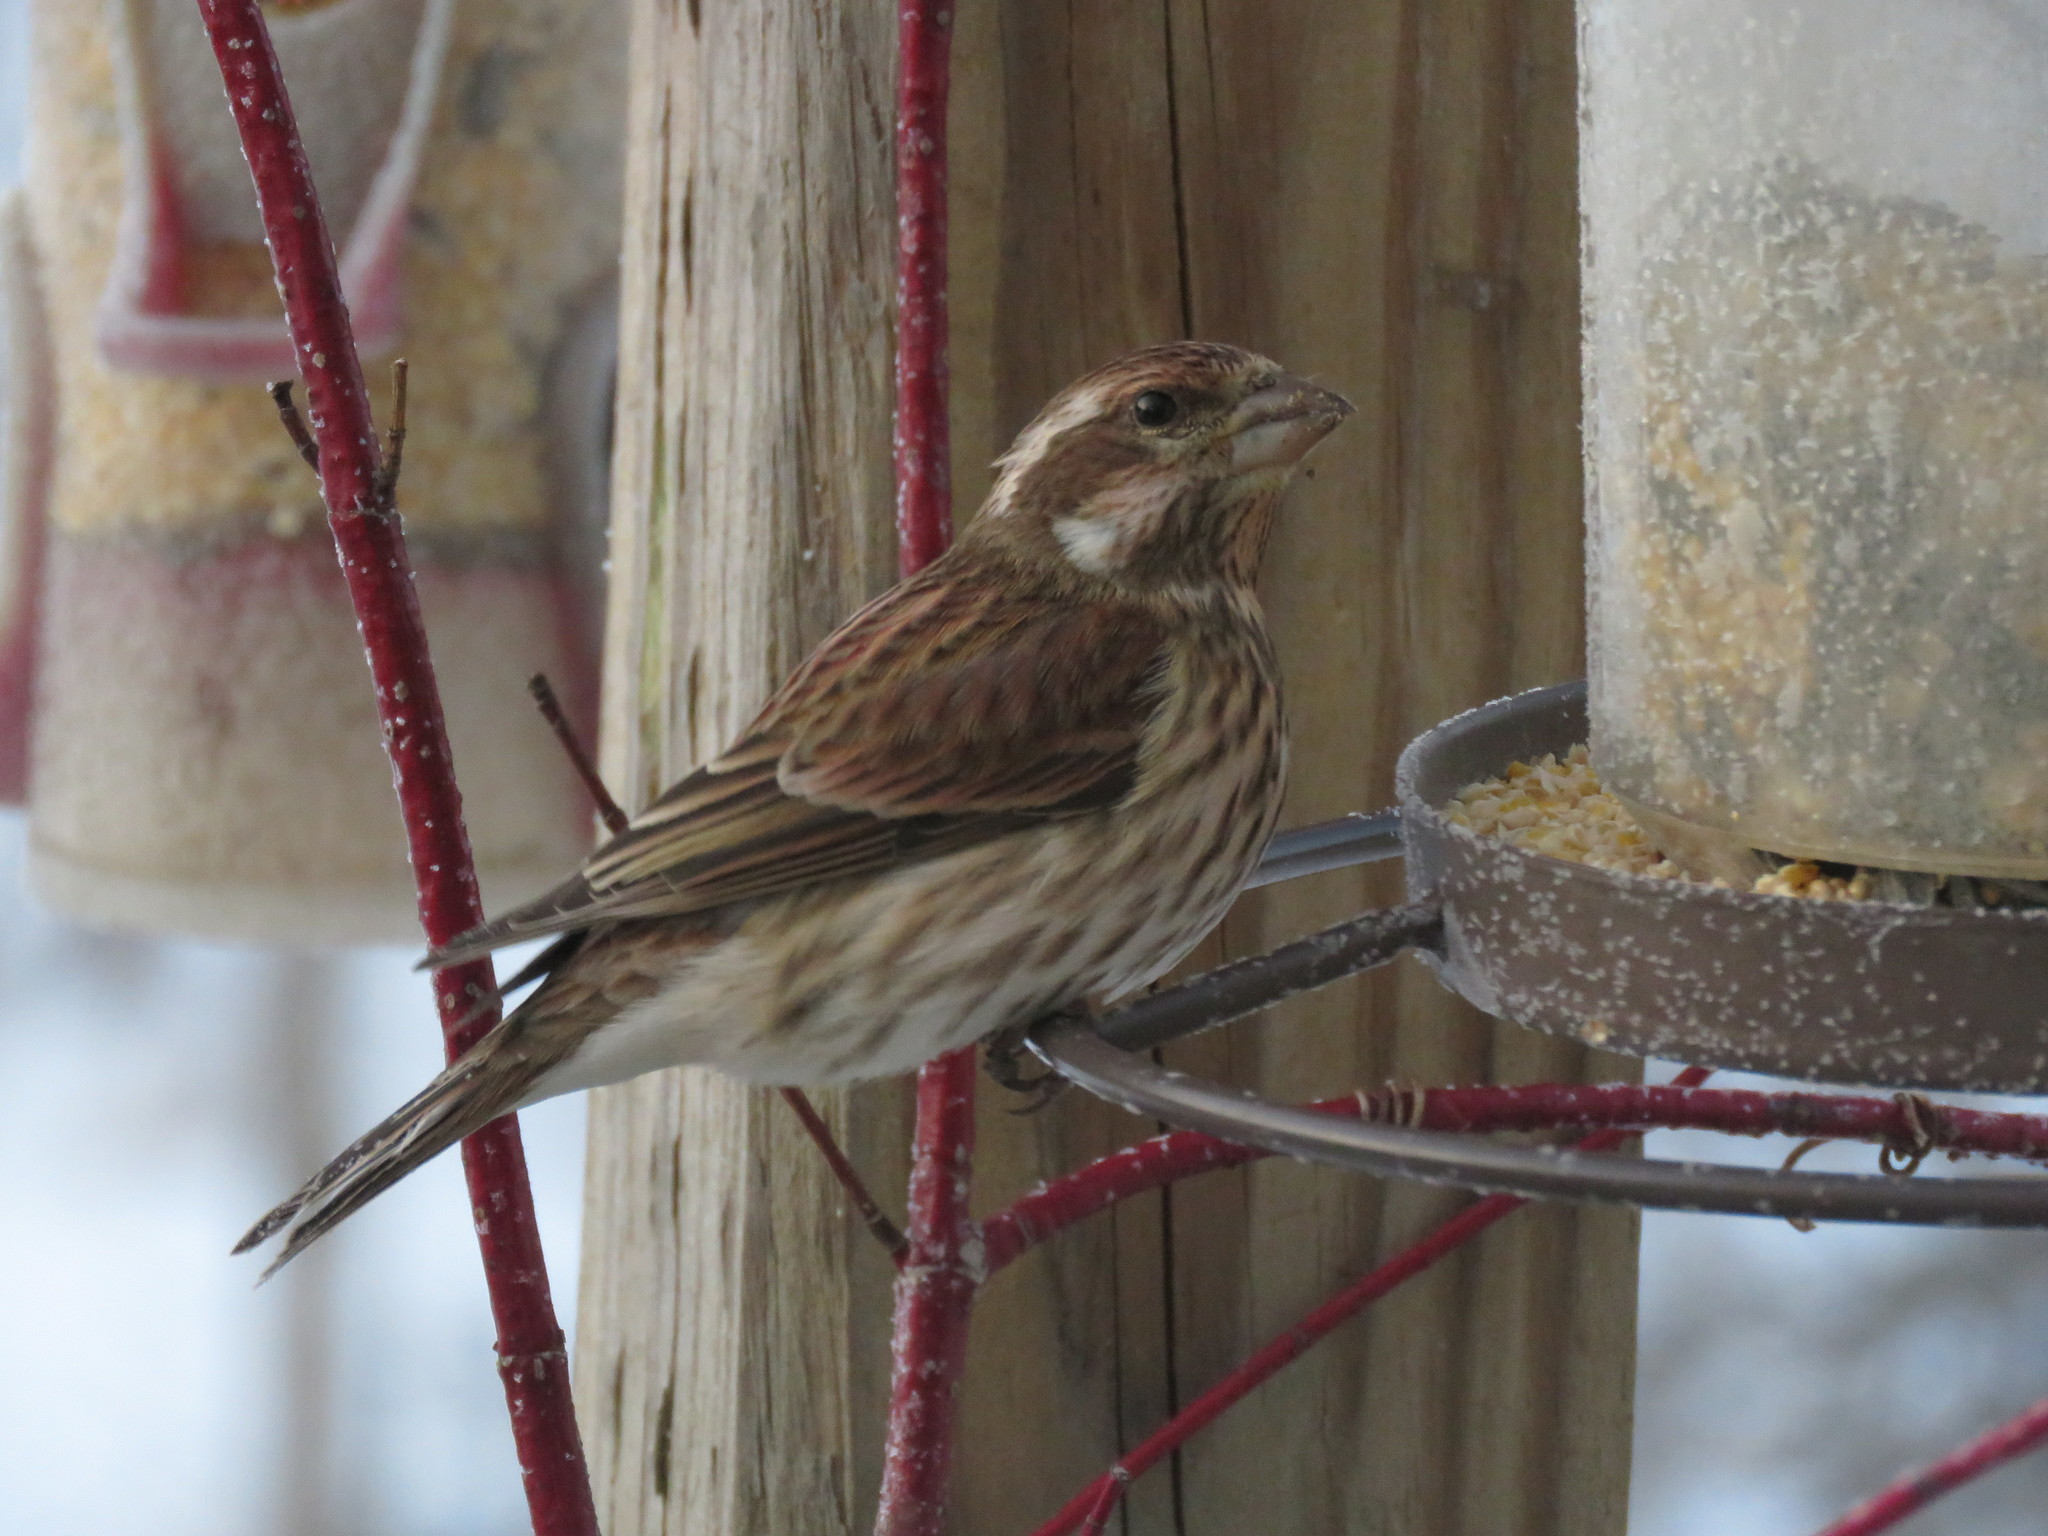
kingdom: Animalia
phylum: Chordata
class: Aves
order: Passeriformes
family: Fringillidae
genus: Haemorhous
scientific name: Haemorhous purpureus
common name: Purple finch
